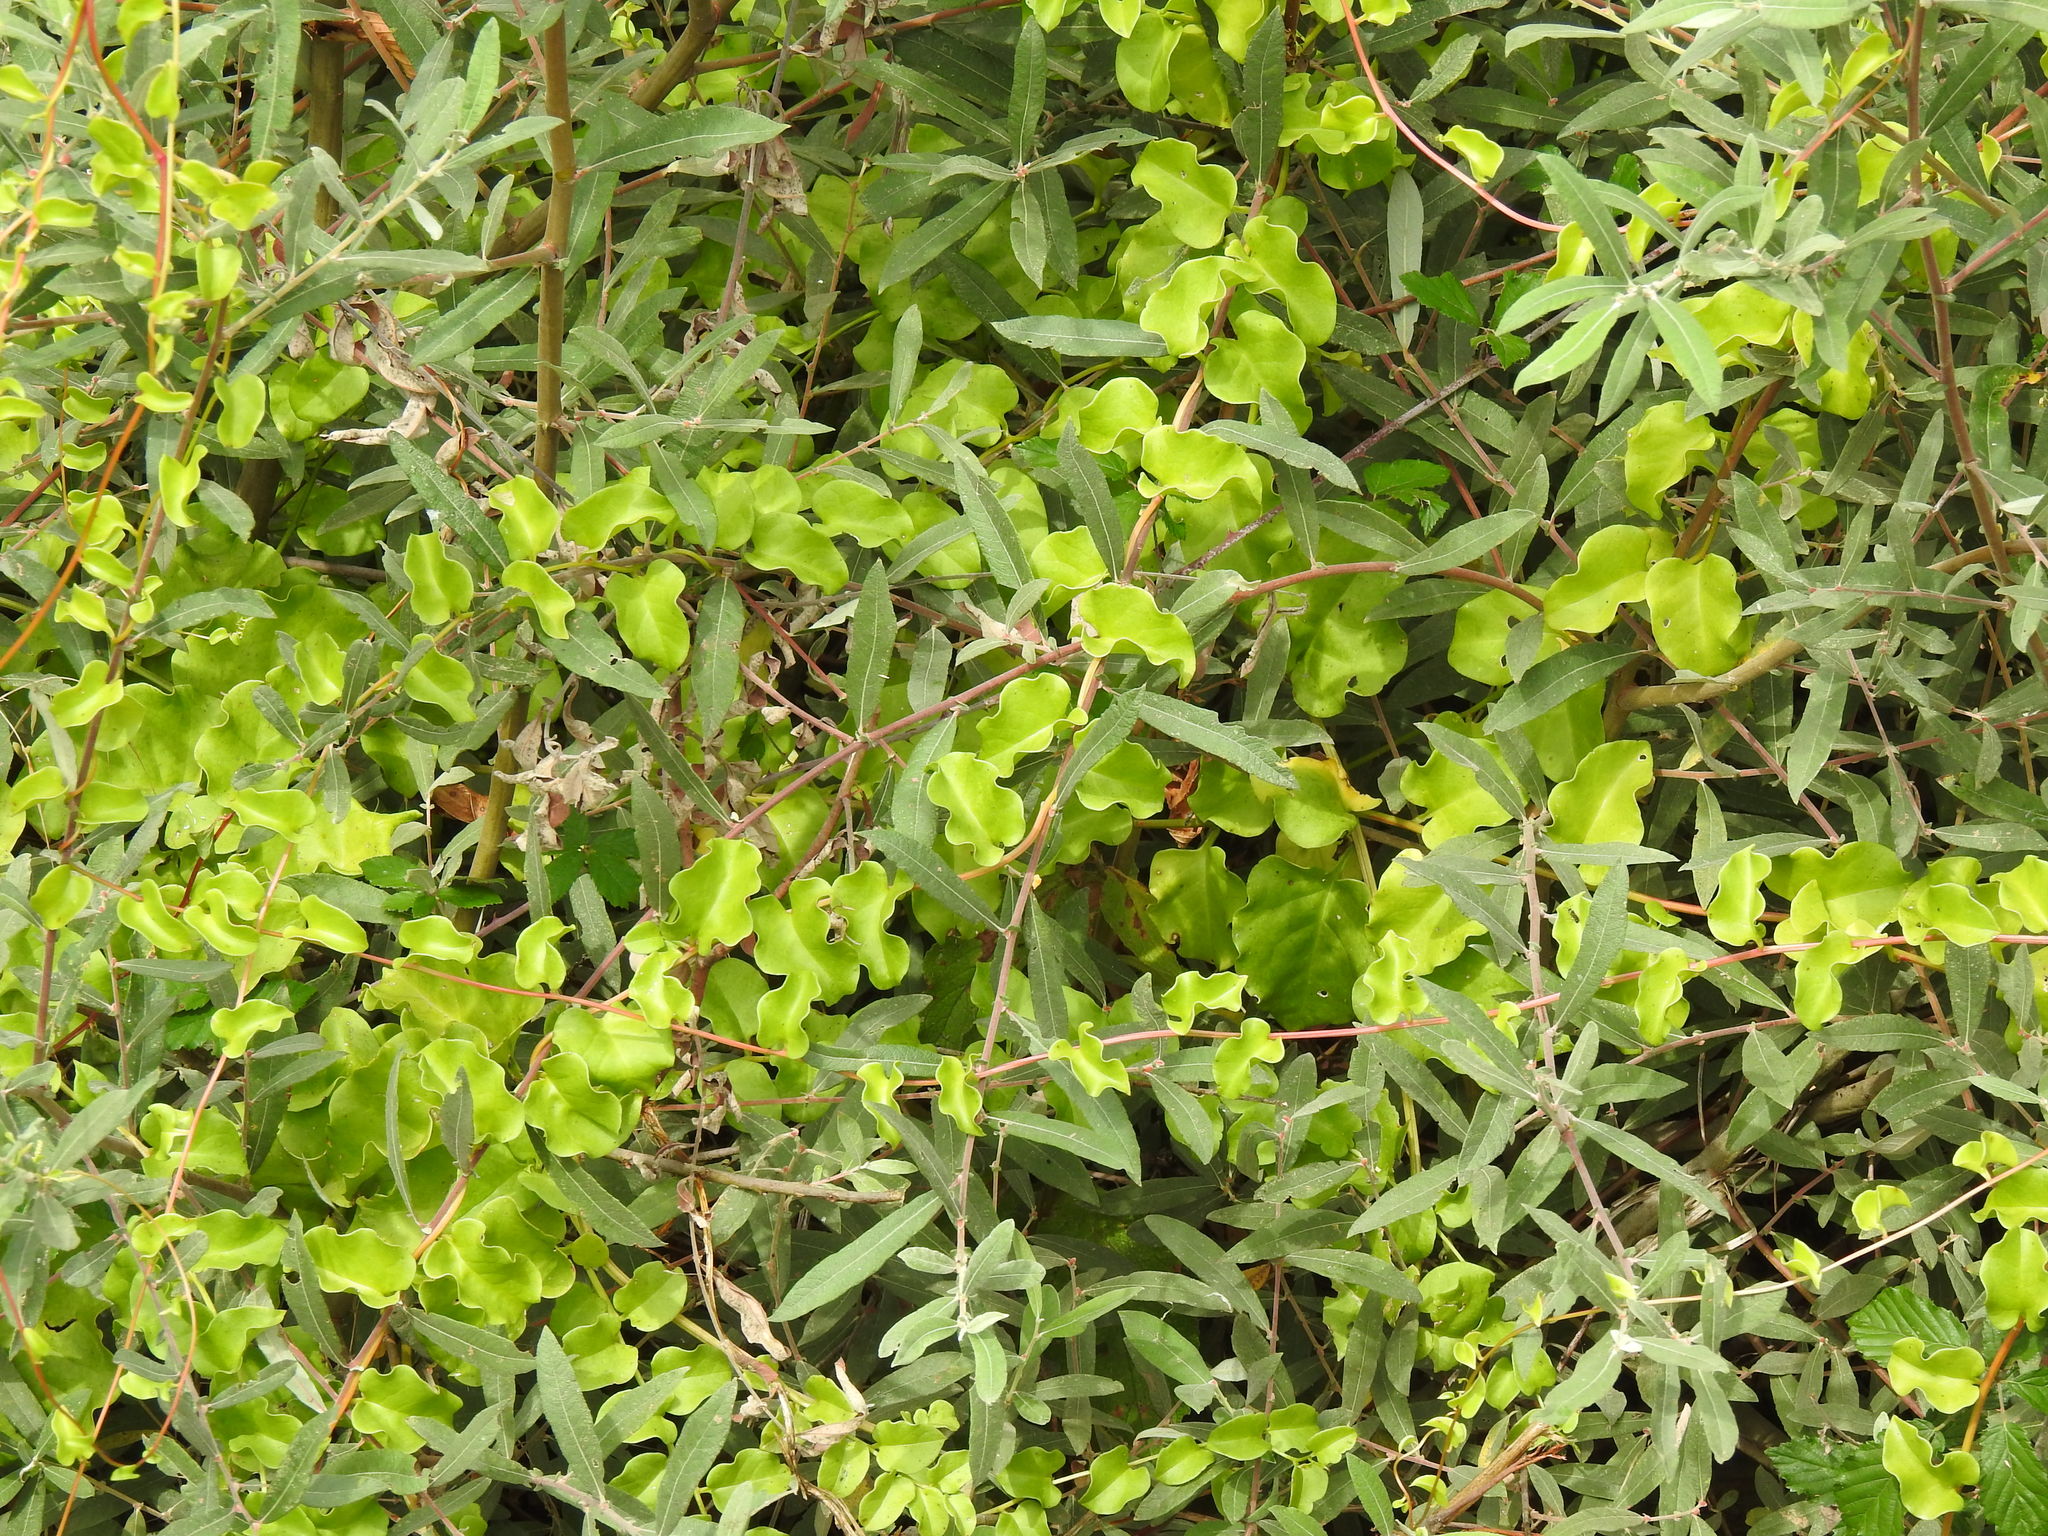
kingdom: Plantae
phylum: Tracheophyta
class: Magnoliopsida
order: Caryophyllales
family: Basellaceae
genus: Anredera
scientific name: Anredera cordifolia
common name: Heartleaf madeiravine
